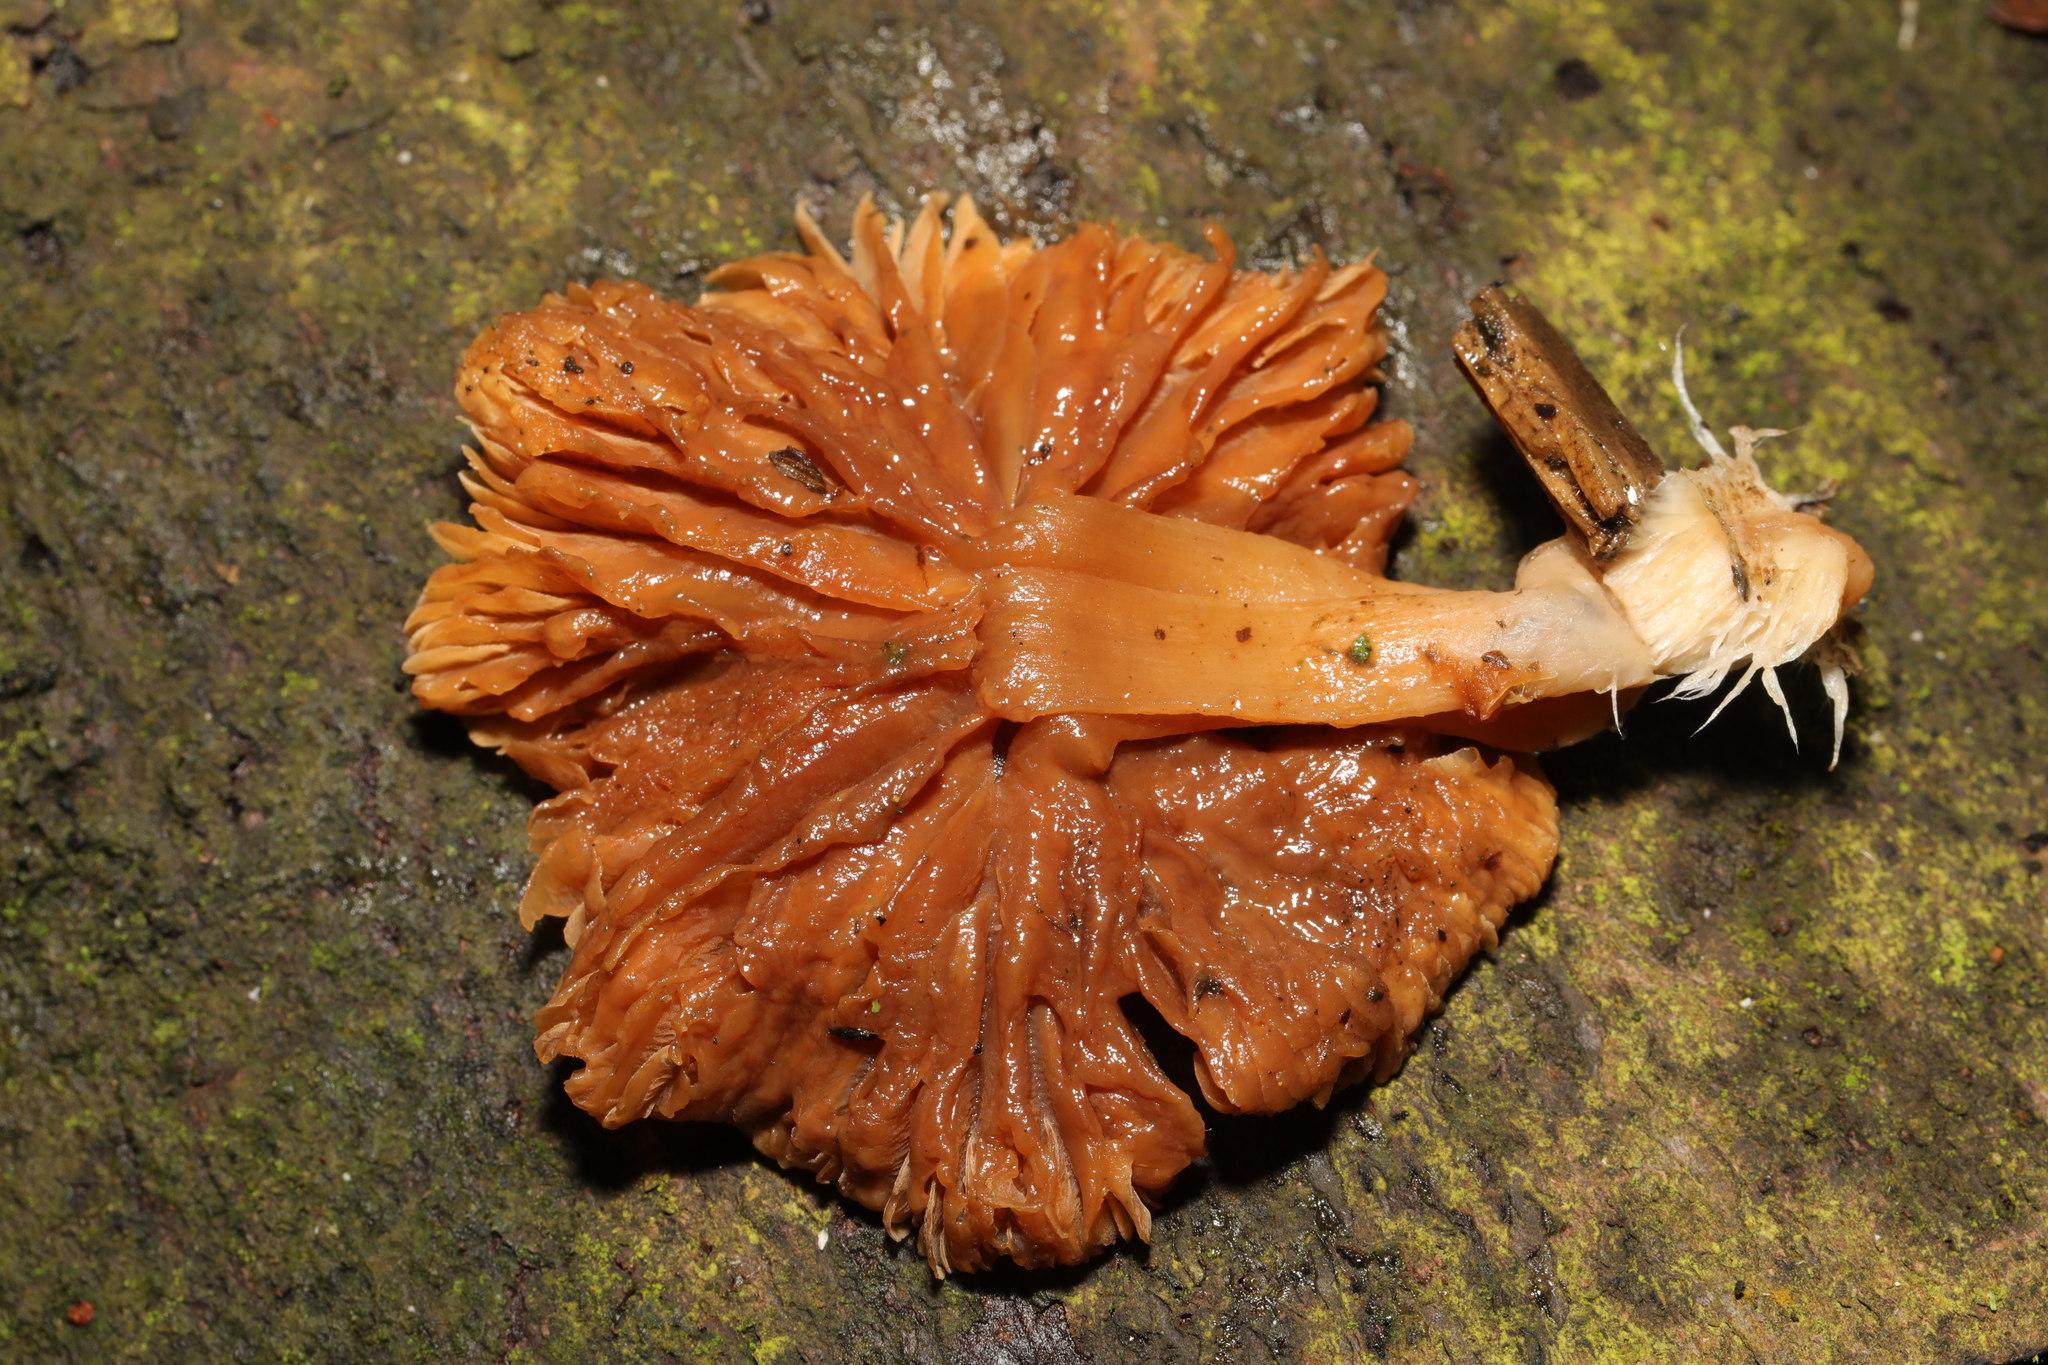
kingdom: Fungi
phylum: Basidiomycota
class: Agaricomycetes
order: Agaricales
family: Tubariaceae
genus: Tubaria
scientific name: Tubaria furfuracea
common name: Scurfy twiglet
